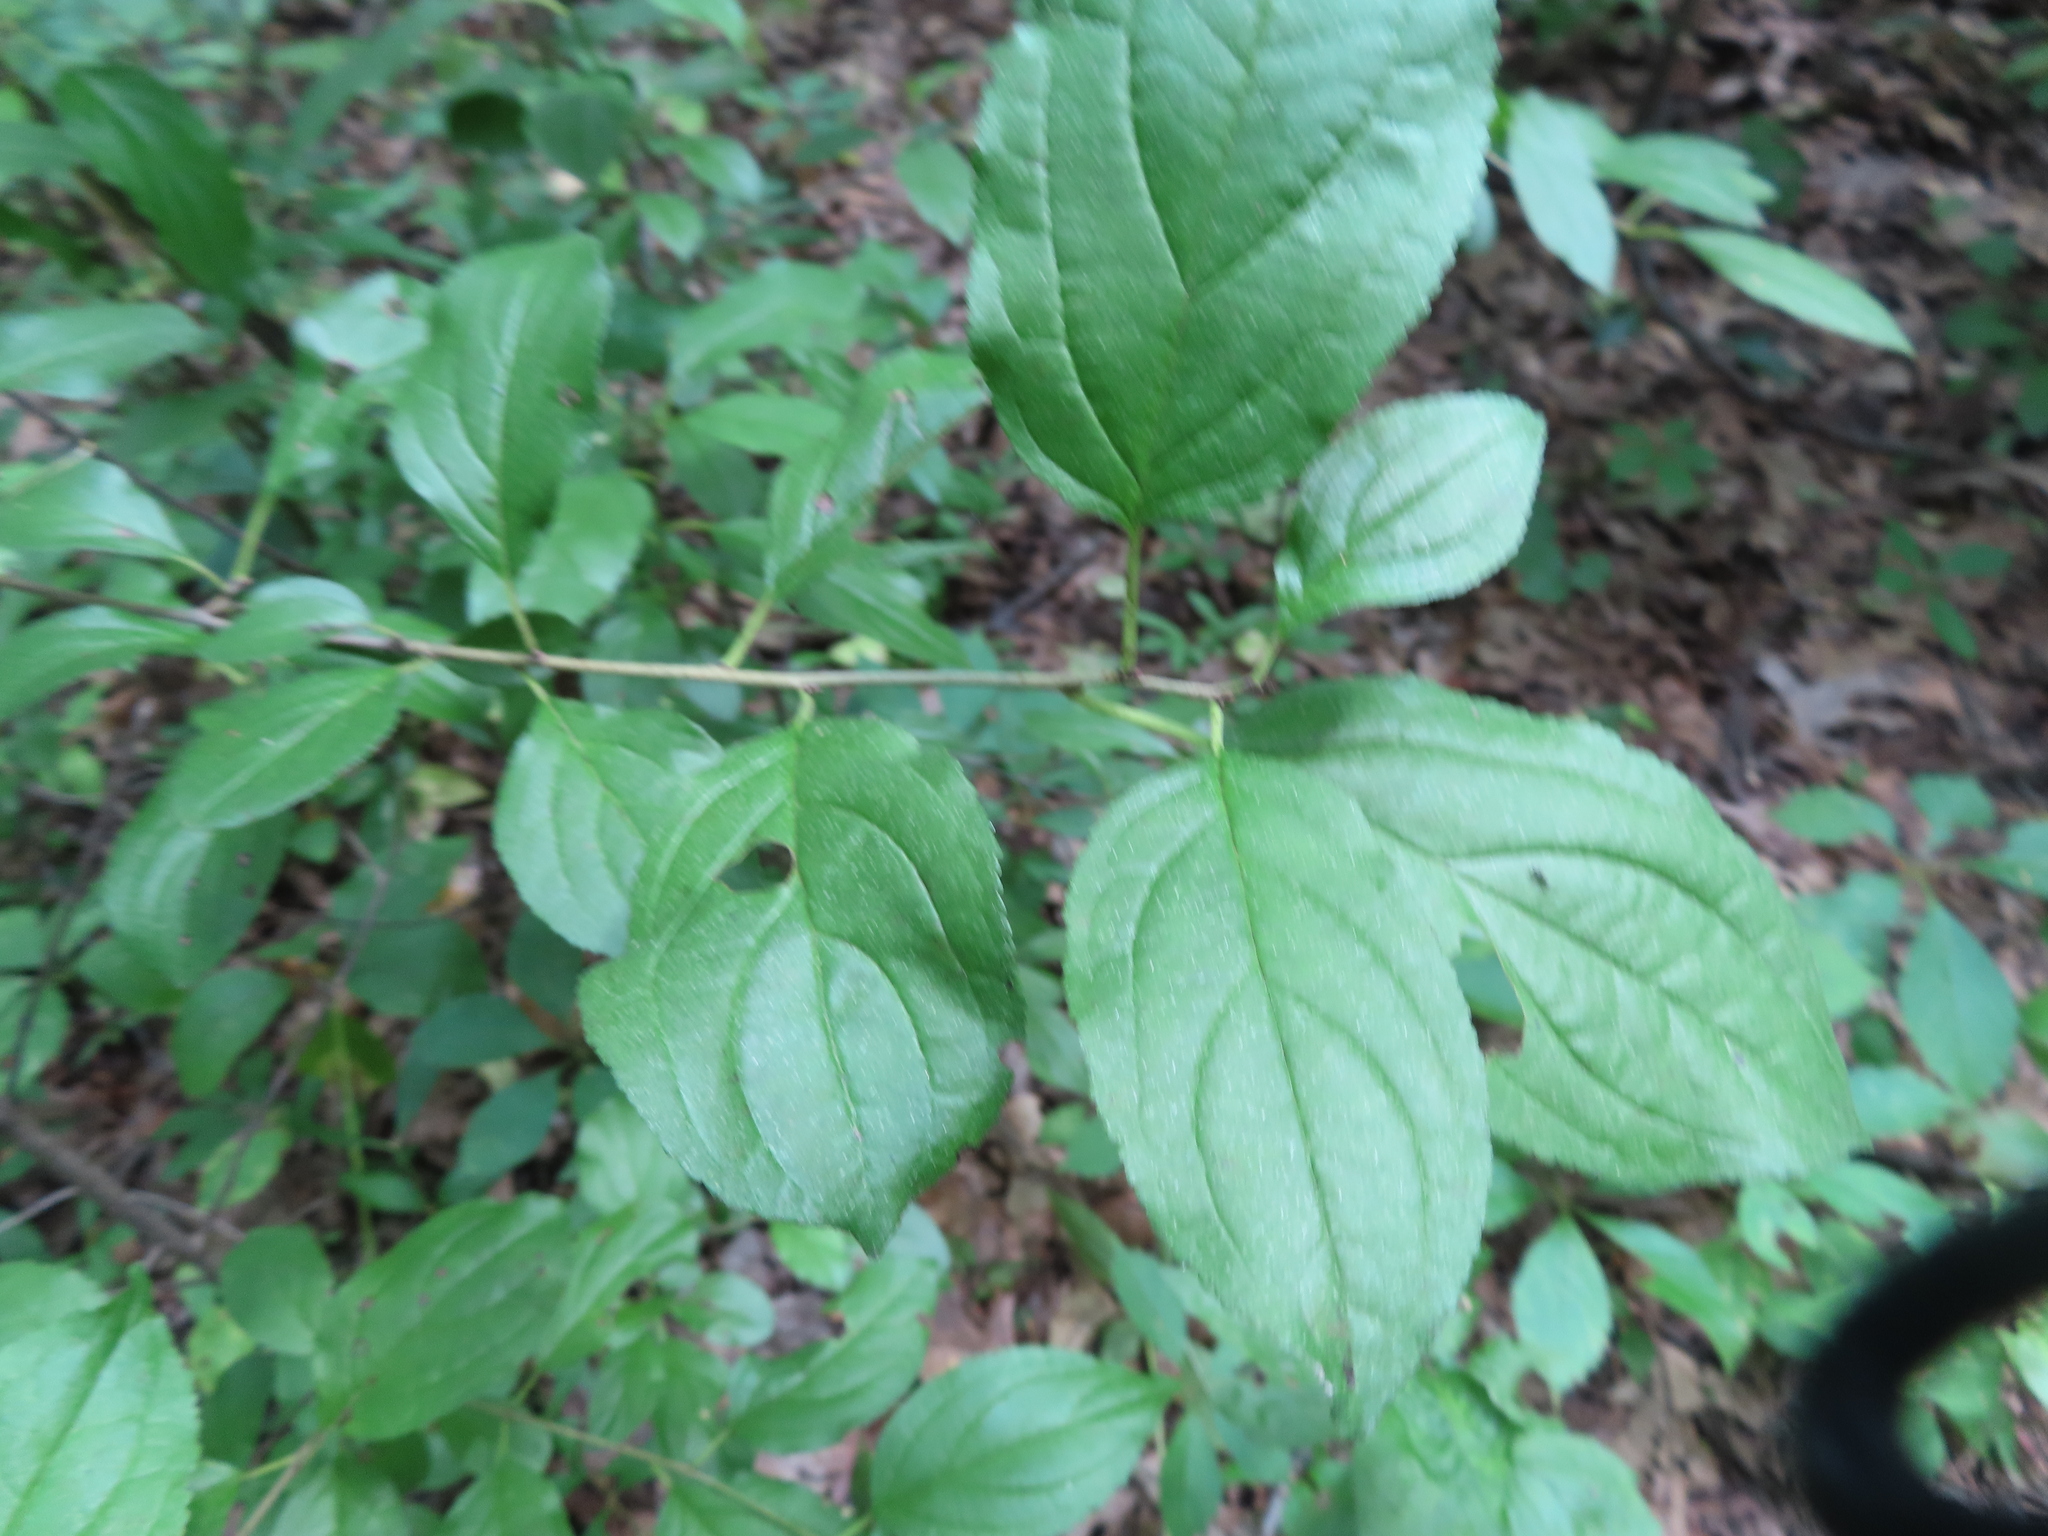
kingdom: Plantae
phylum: Tracheophyta
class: Magnoliopsida
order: Rosales
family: Rhamnaceae
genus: Rhamnus
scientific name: Rhamnus cathartica
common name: Common buckthorn
